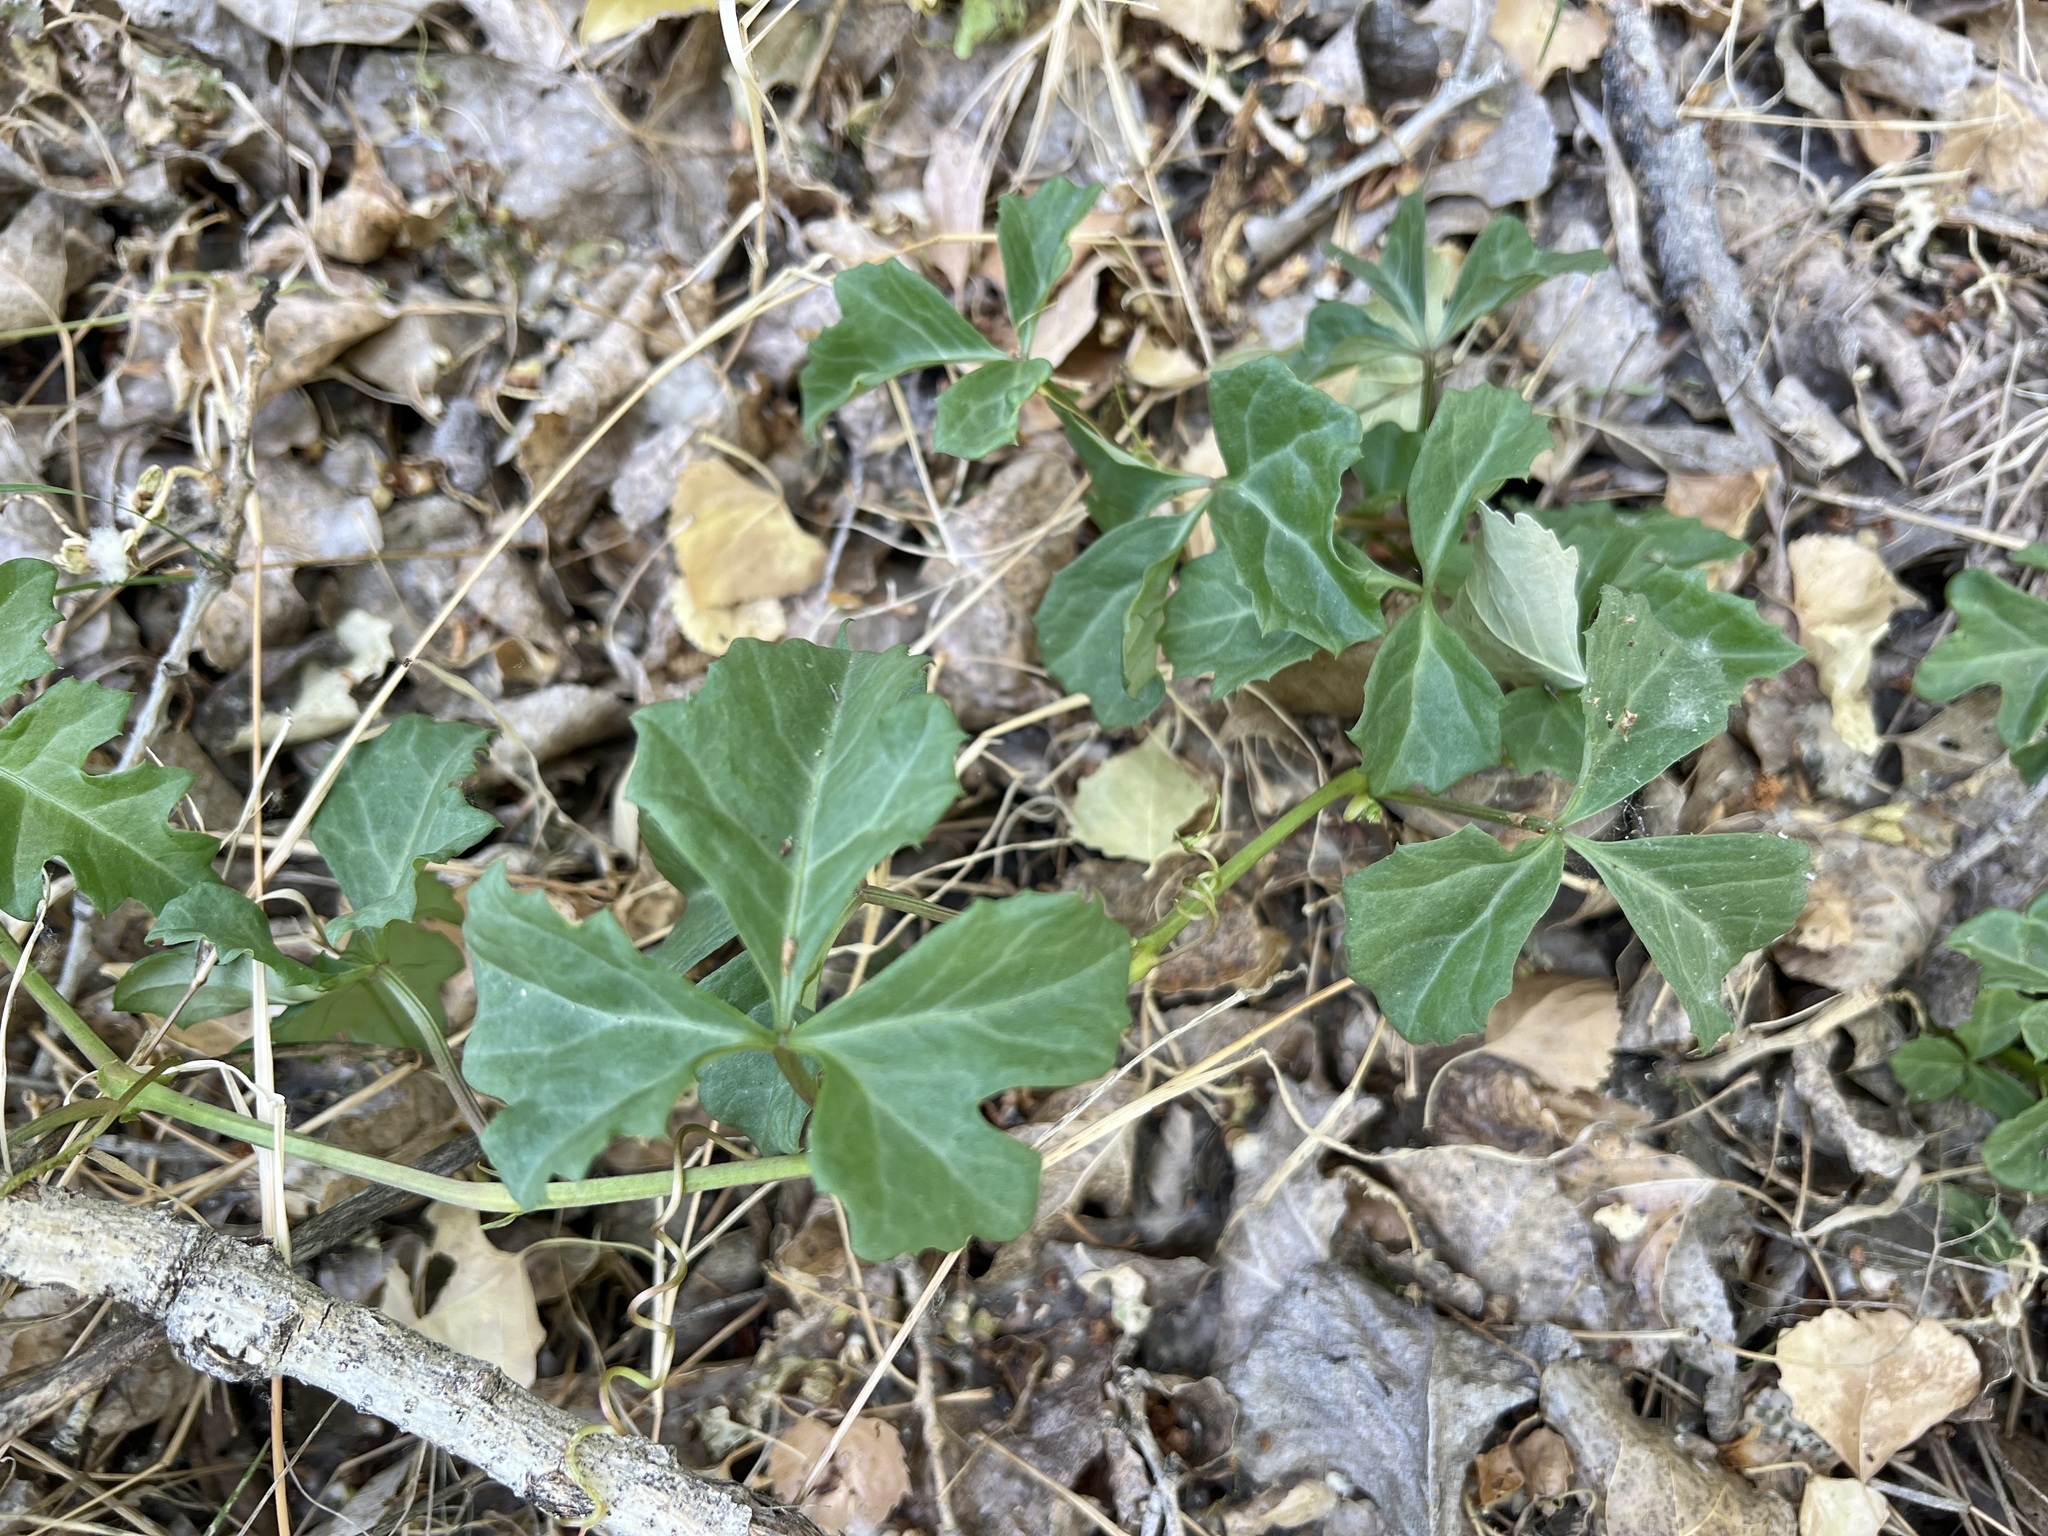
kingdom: Plantae
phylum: Tracheophyta
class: Magnoliopsida
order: Vitales
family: Vitaceae
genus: Cissus
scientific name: Cissus trifoliata
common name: Vine-sorrel
